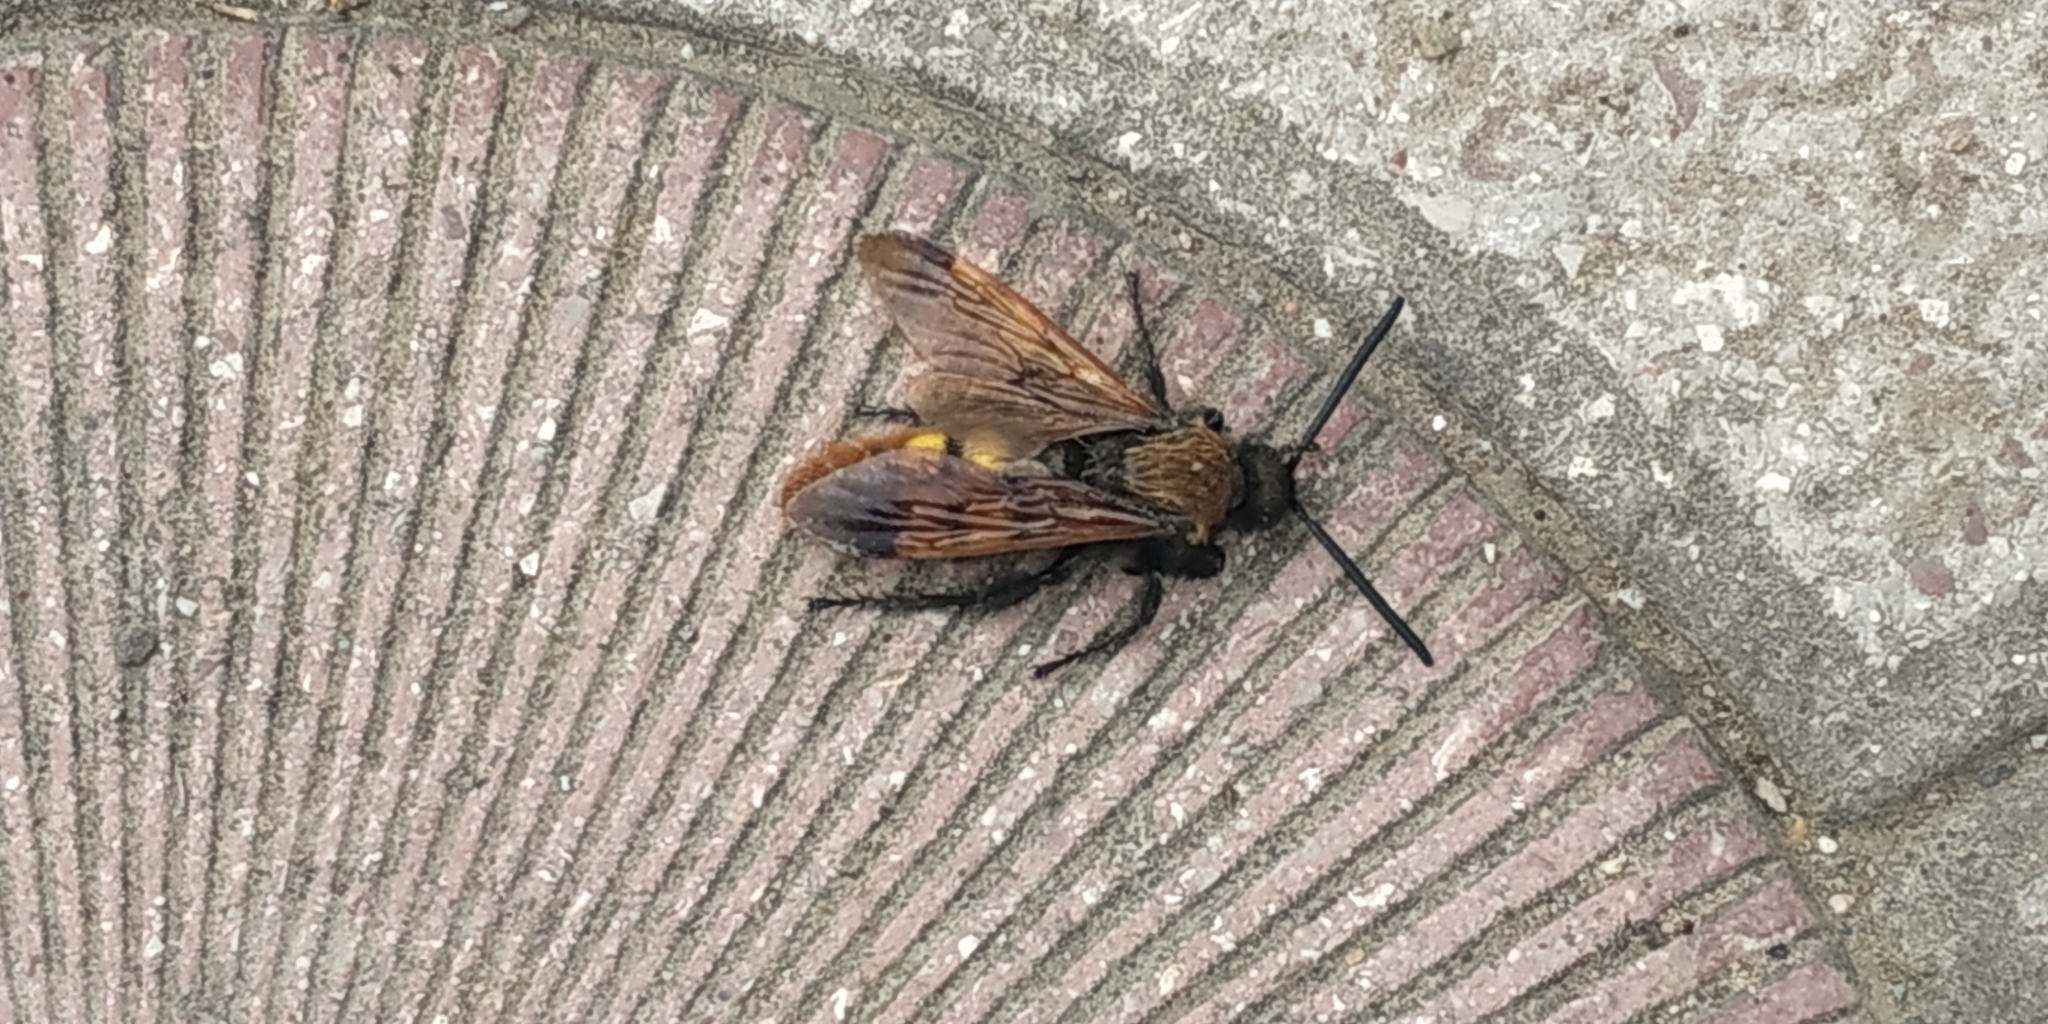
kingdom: Animalia
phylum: Arthropoda
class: Insecta
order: Hymenoptera
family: Scoliidae
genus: Megascolia
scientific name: Megascolia maculata
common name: Mammoth wasp
